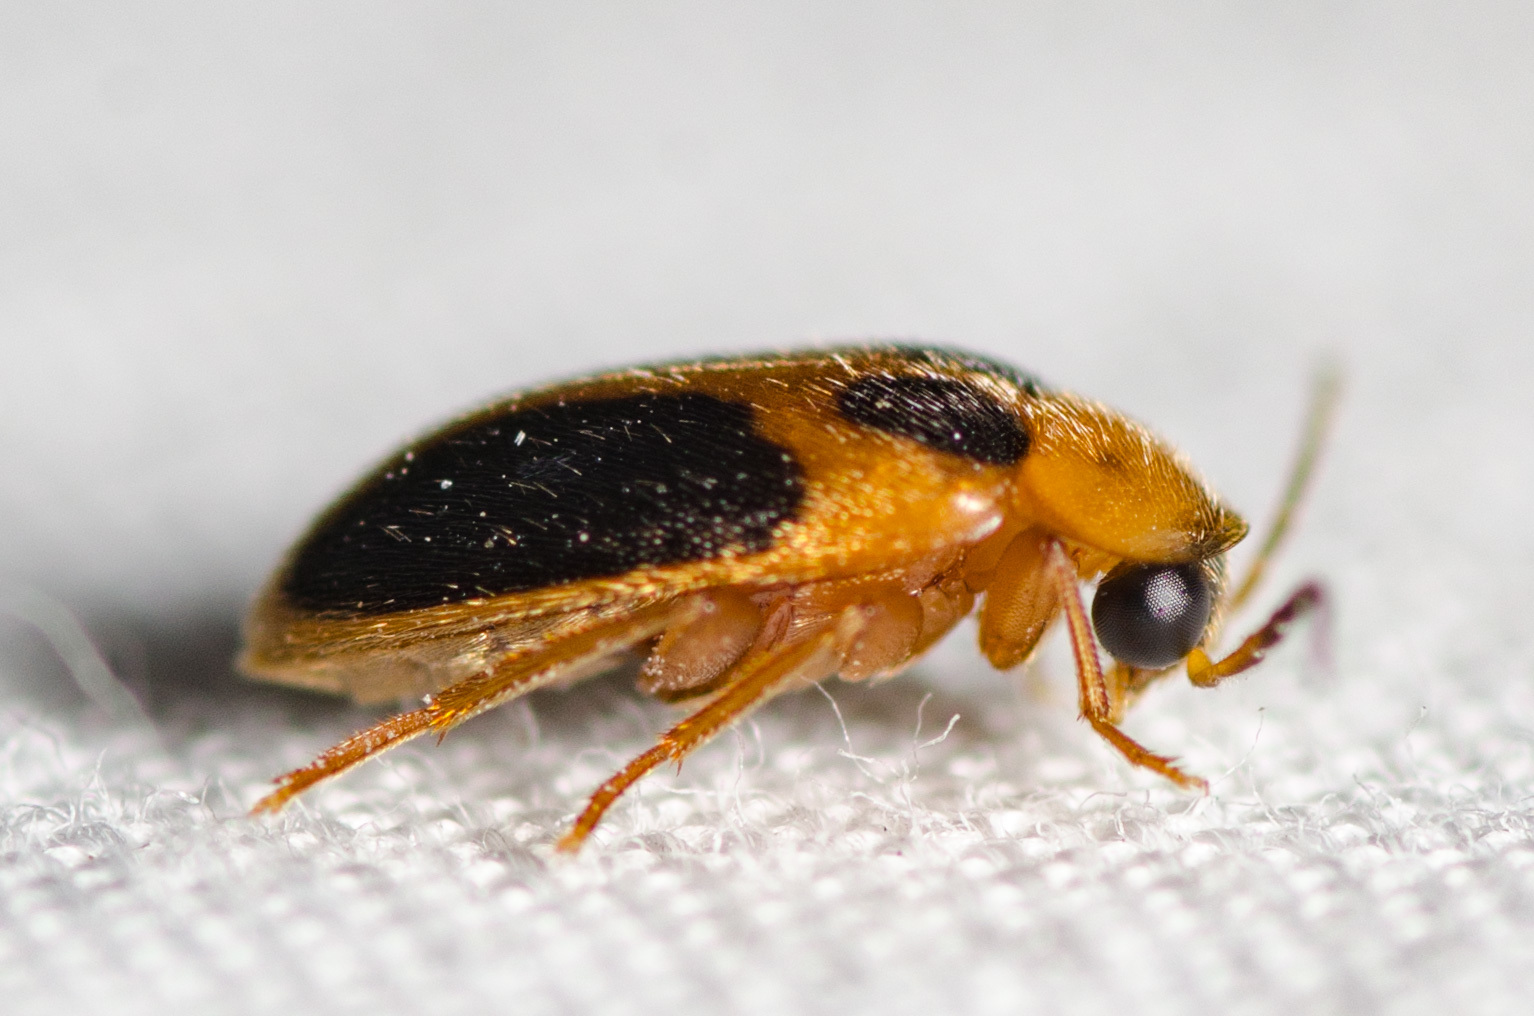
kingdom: Animalia
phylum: Arthropoda
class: Insecta
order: Coleoptera
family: Scirtidae
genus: Sacodes
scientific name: Sacodes pulchella
